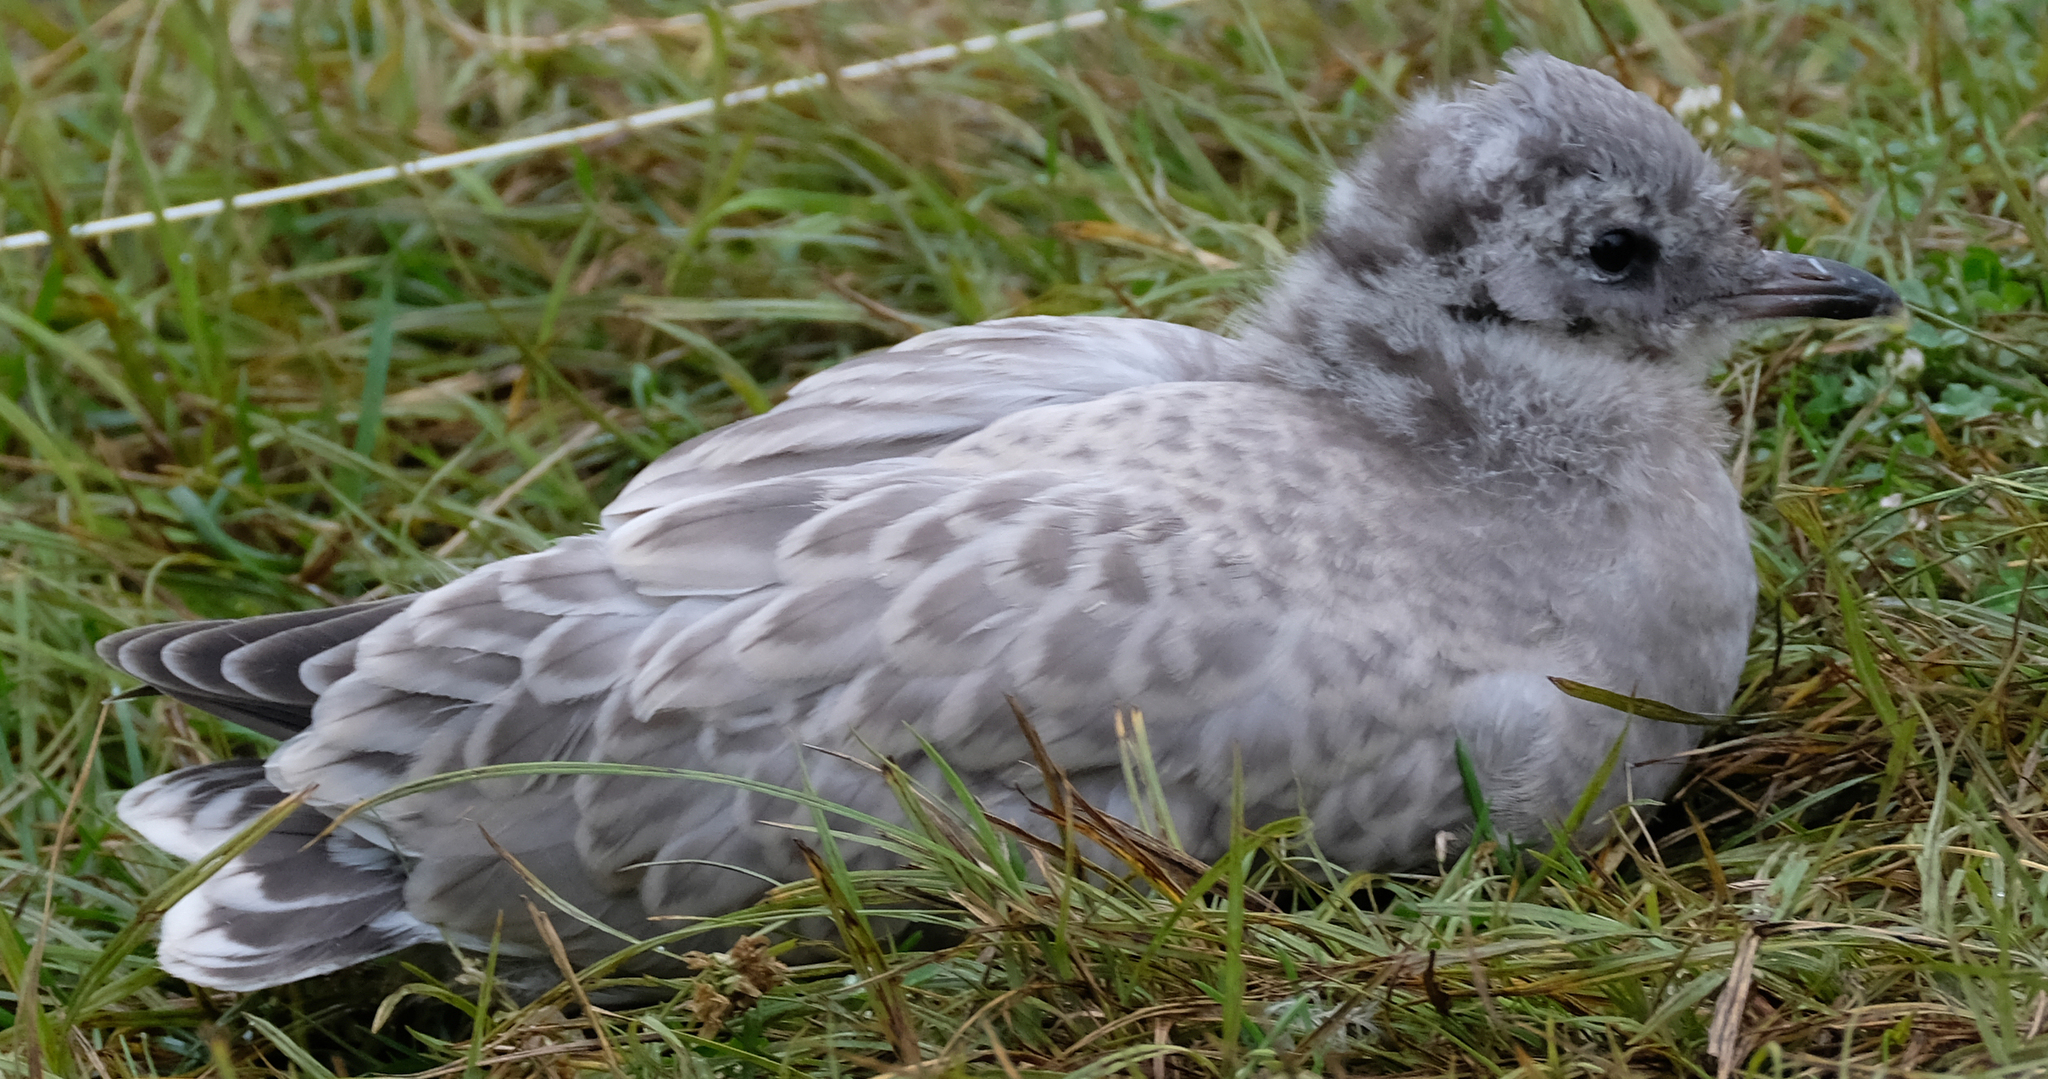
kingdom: Animalia
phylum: Chordata
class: Aves
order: Charadriiformes
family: Laridae
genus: Larus
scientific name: Larus brachyrhynchus
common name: Short-billed gull
